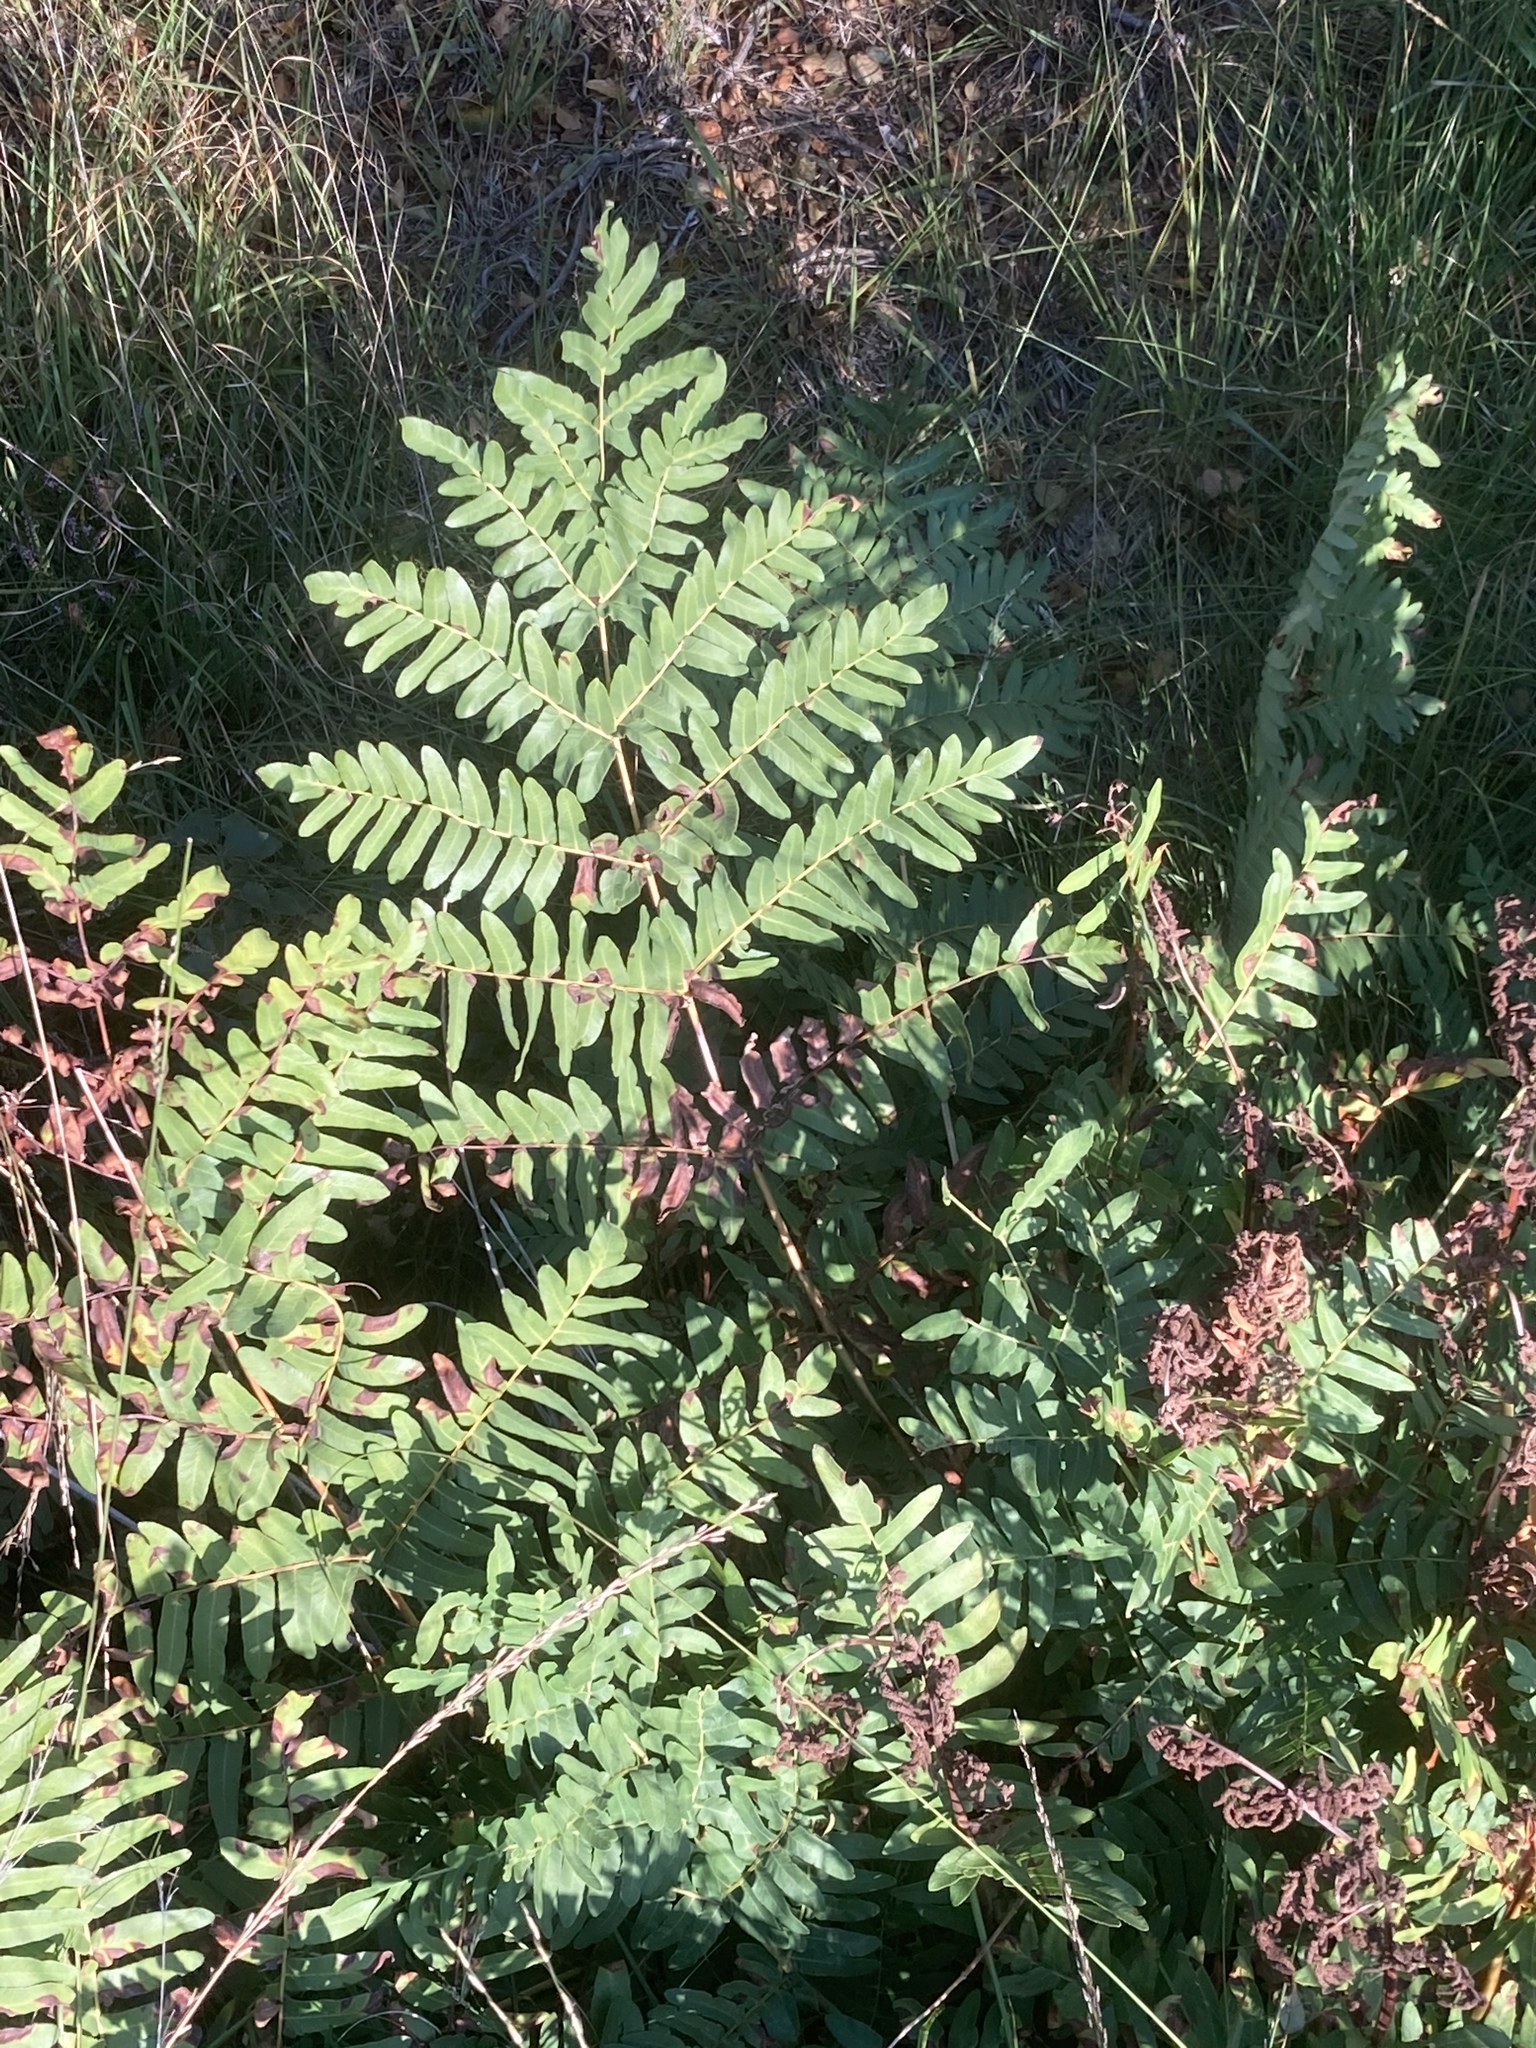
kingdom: Plantae
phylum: Tracheophyta
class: Polypodiopsida
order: Osmundales
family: Osmundaceae
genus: Osmunda
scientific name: Osmunda regalis
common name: Royal fern
